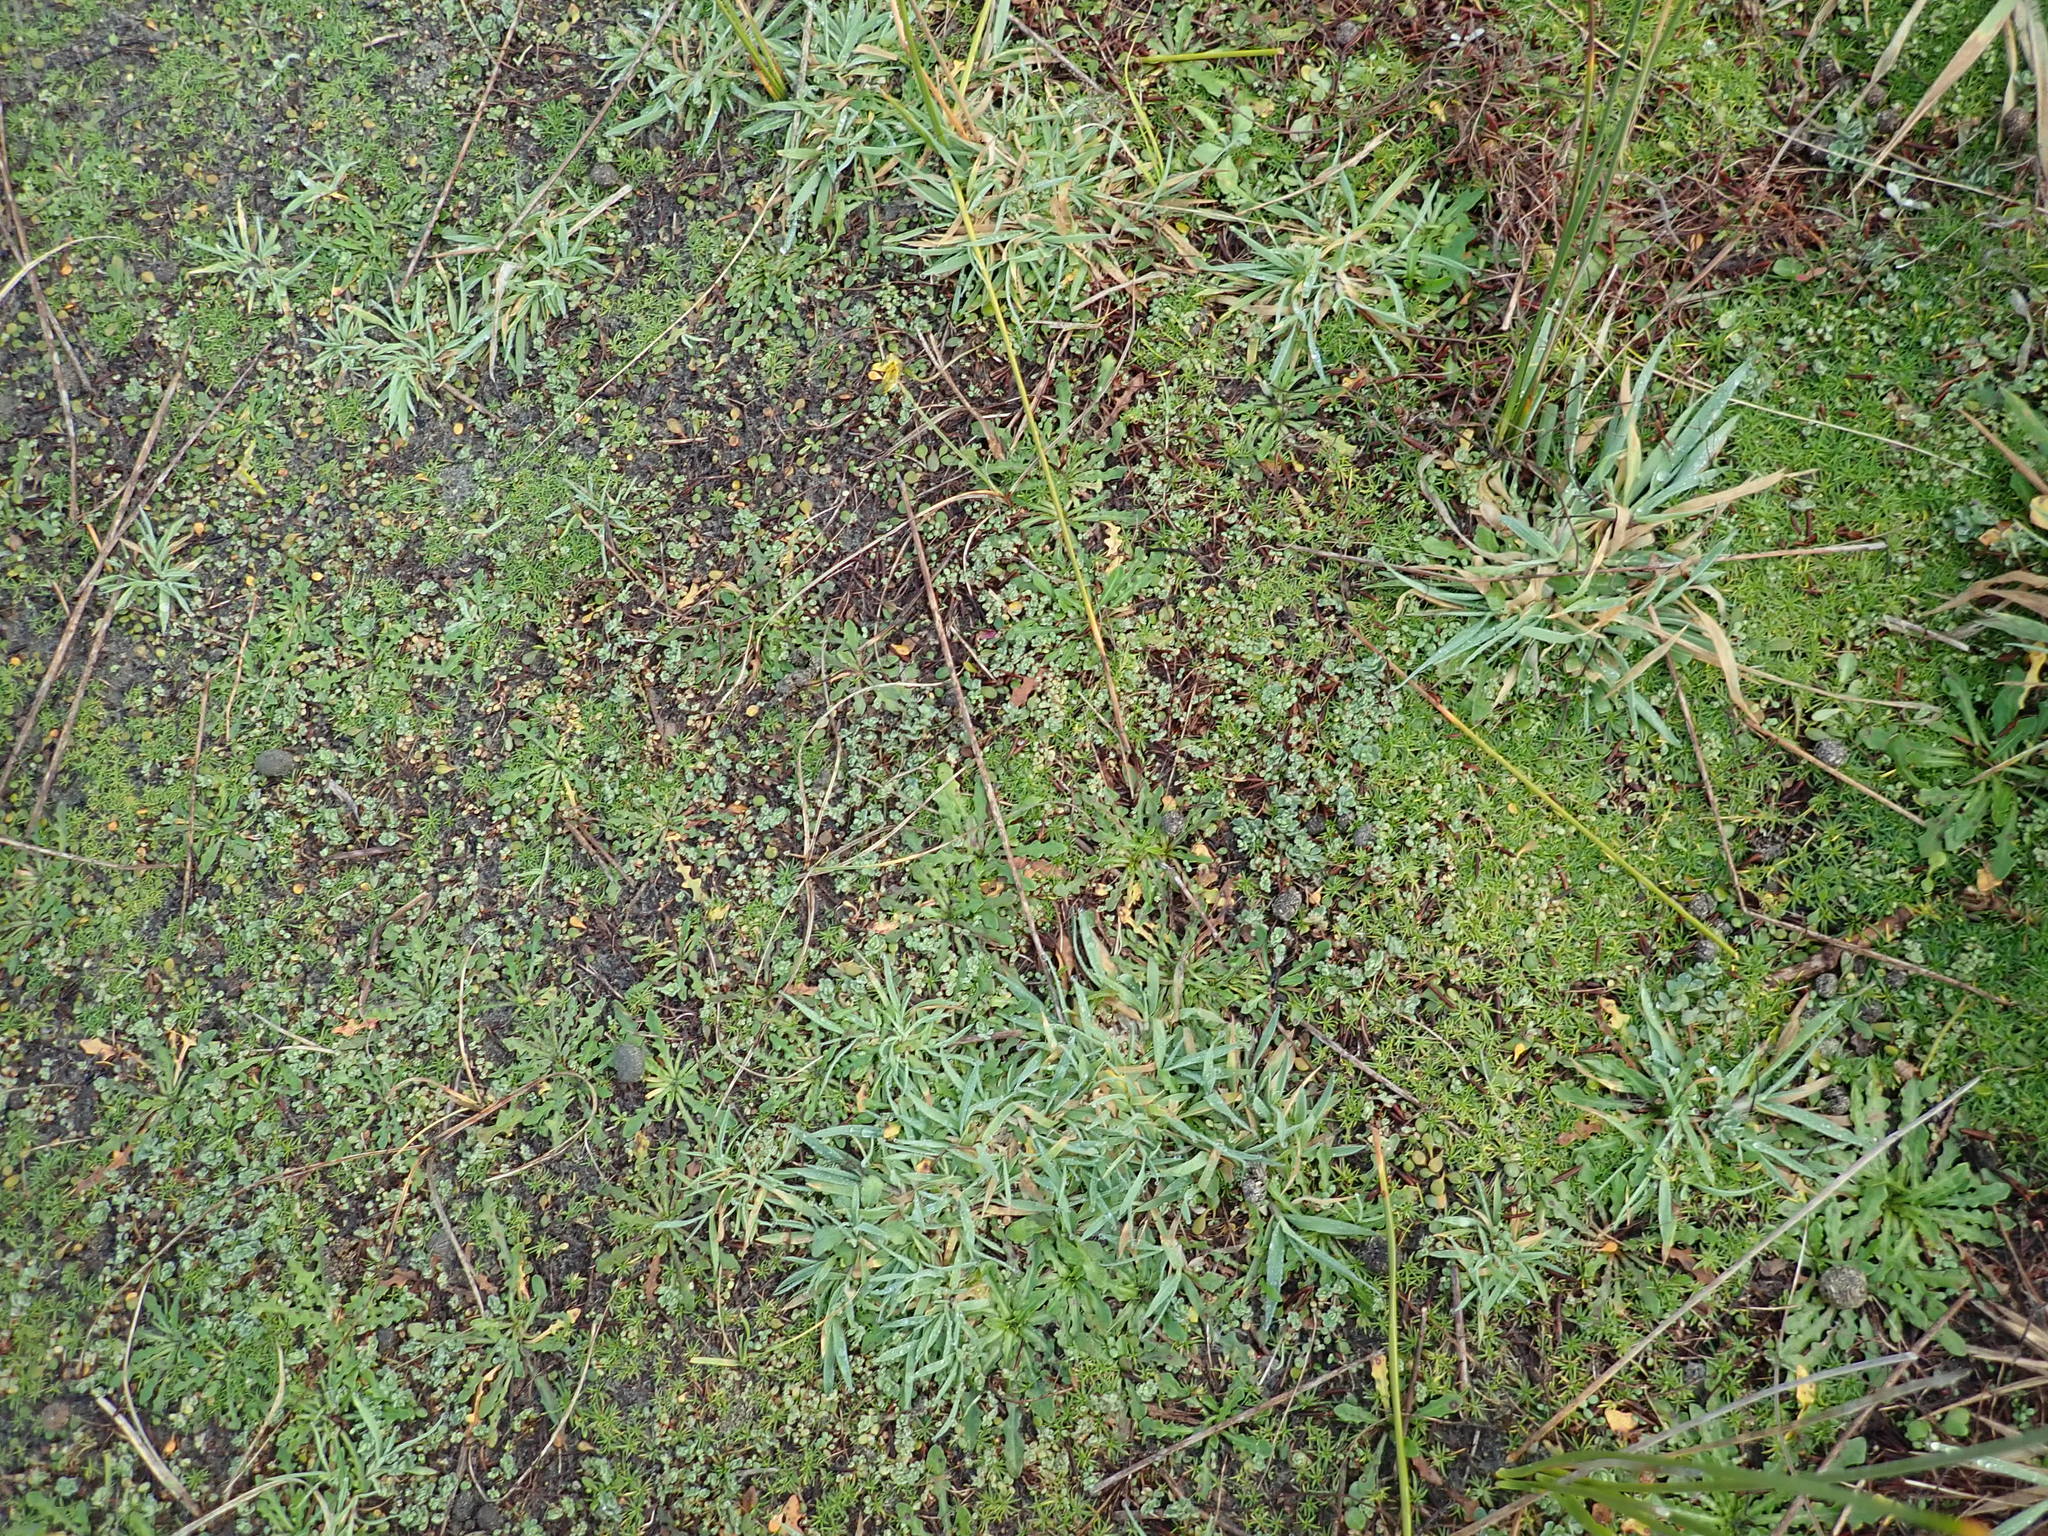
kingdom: Plantae
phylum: Tracheophyta
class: Magnoliopsida
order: Caryophyllales
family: Caryophyllaceae
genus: Sagina
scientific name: Sagina procumbens
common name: Procumbent pearlwort
